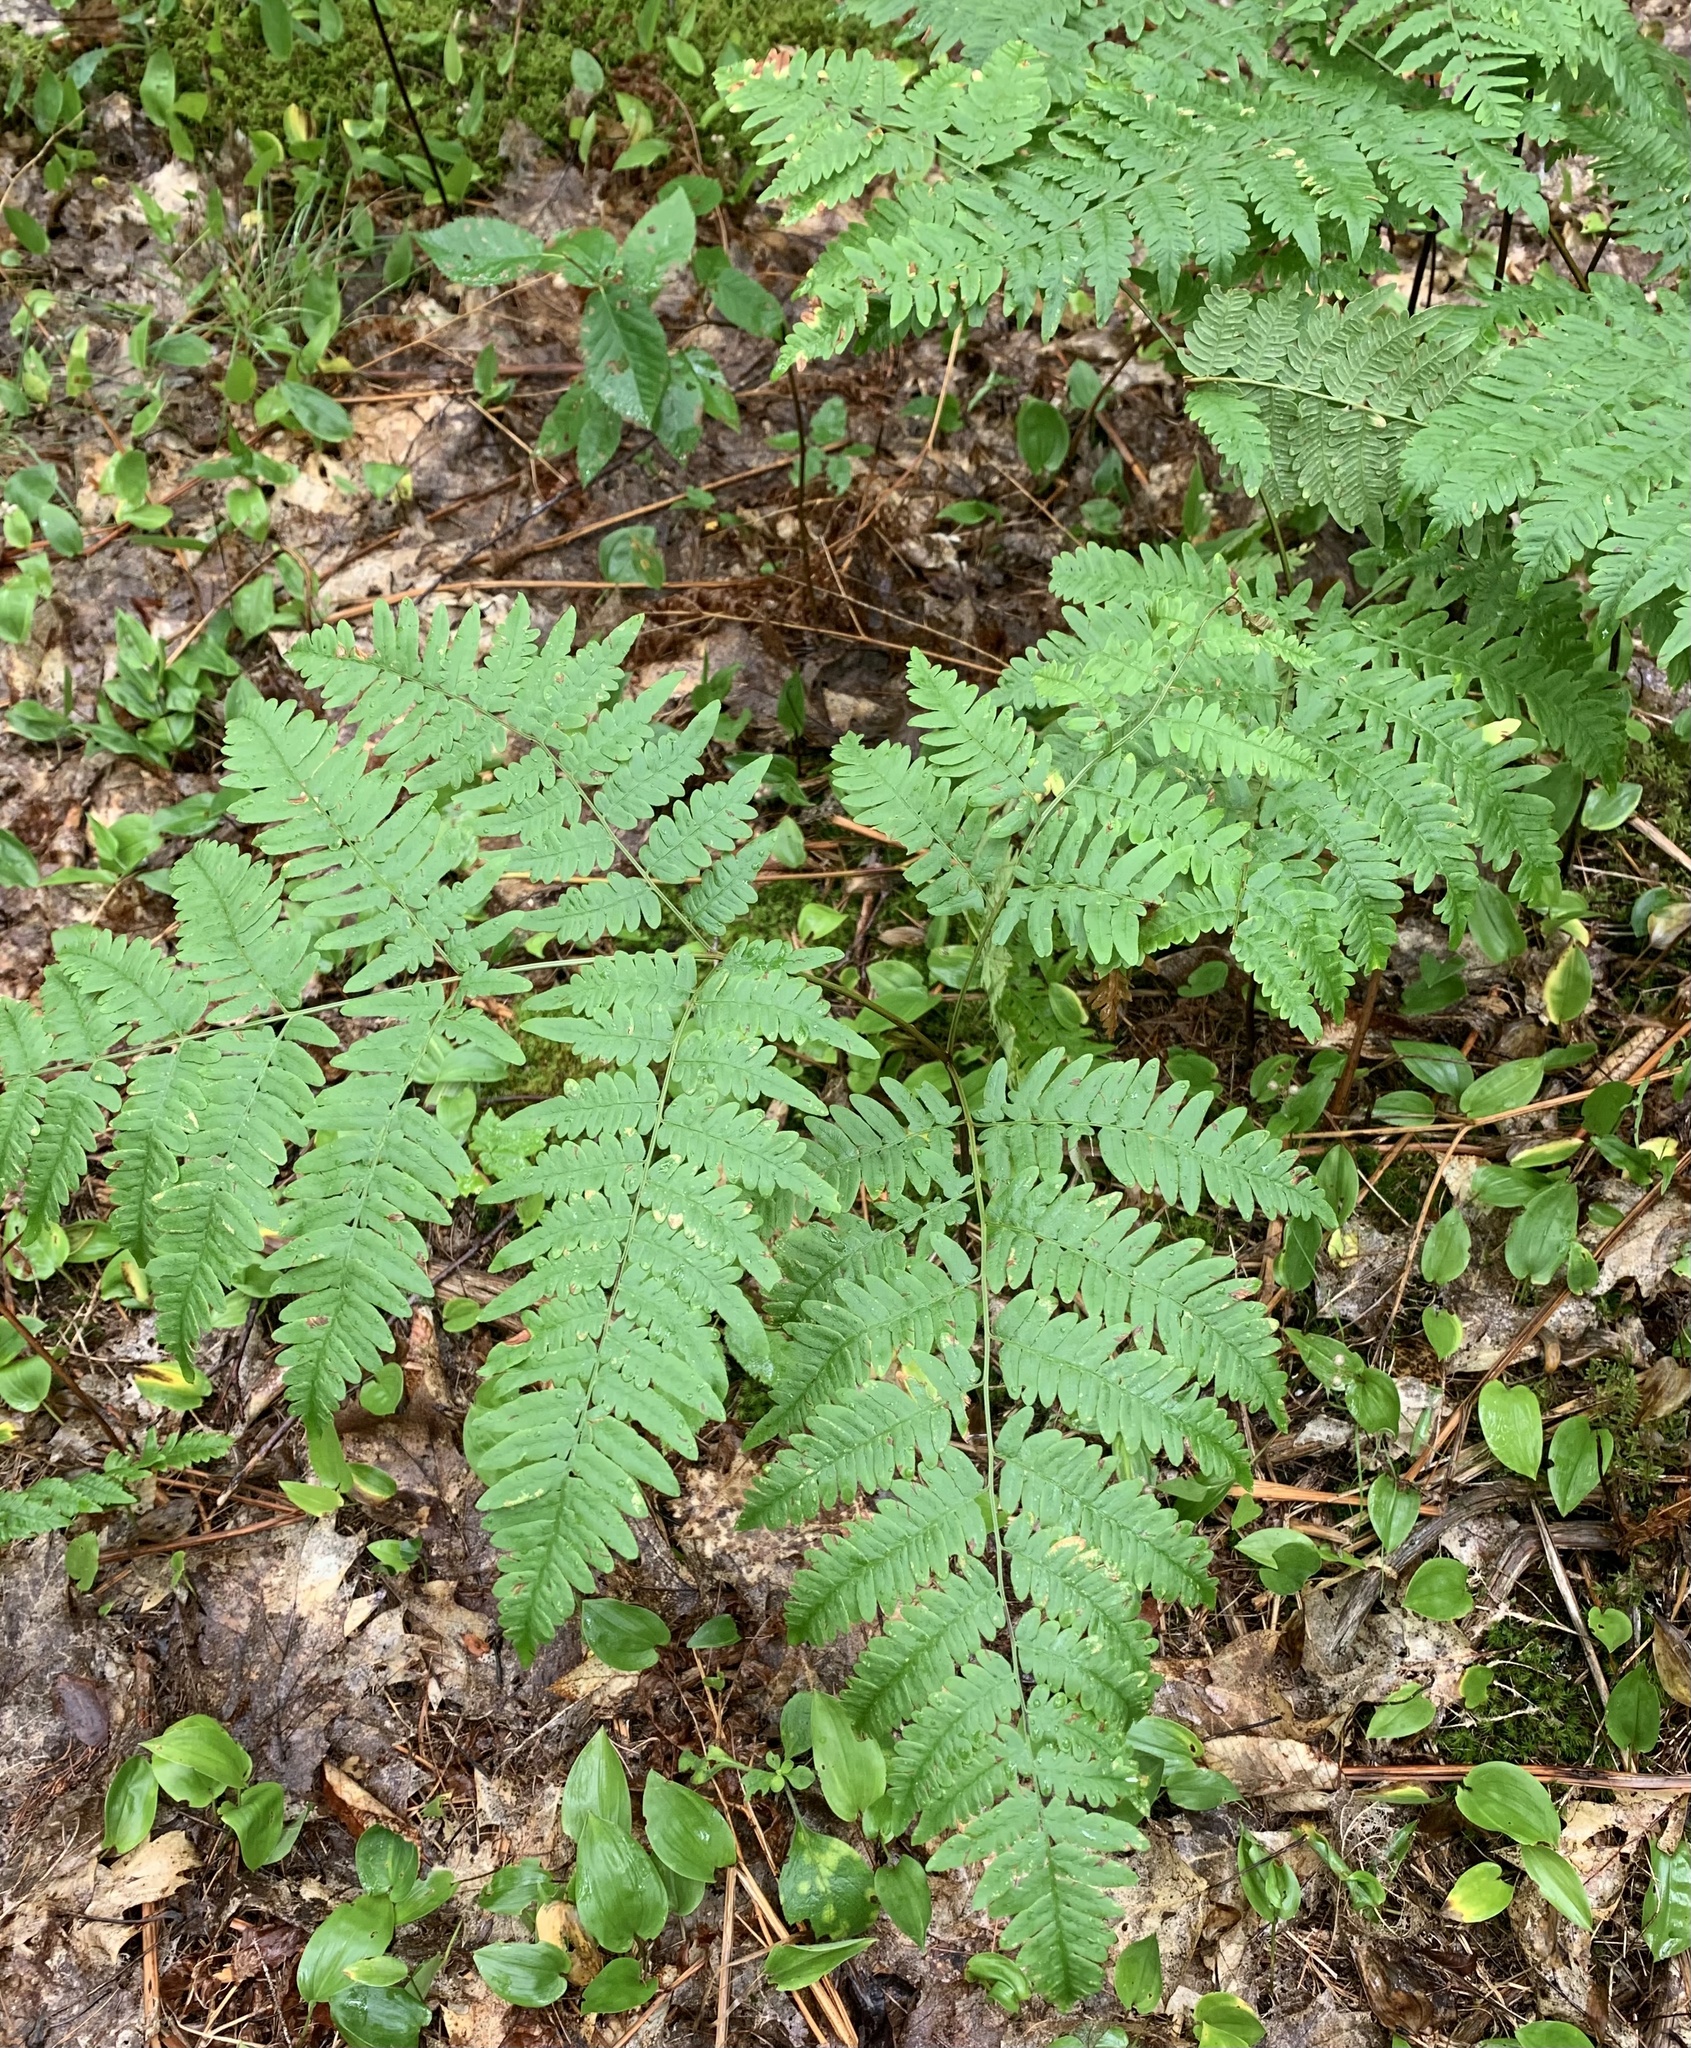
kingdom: Plantae
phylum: Tracheophyta
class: Polypodiopsida
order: Polypodiales
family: Dennstaedtiaceae
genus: Pteridium
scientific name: Pteridium aquilinum
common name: Bracken
